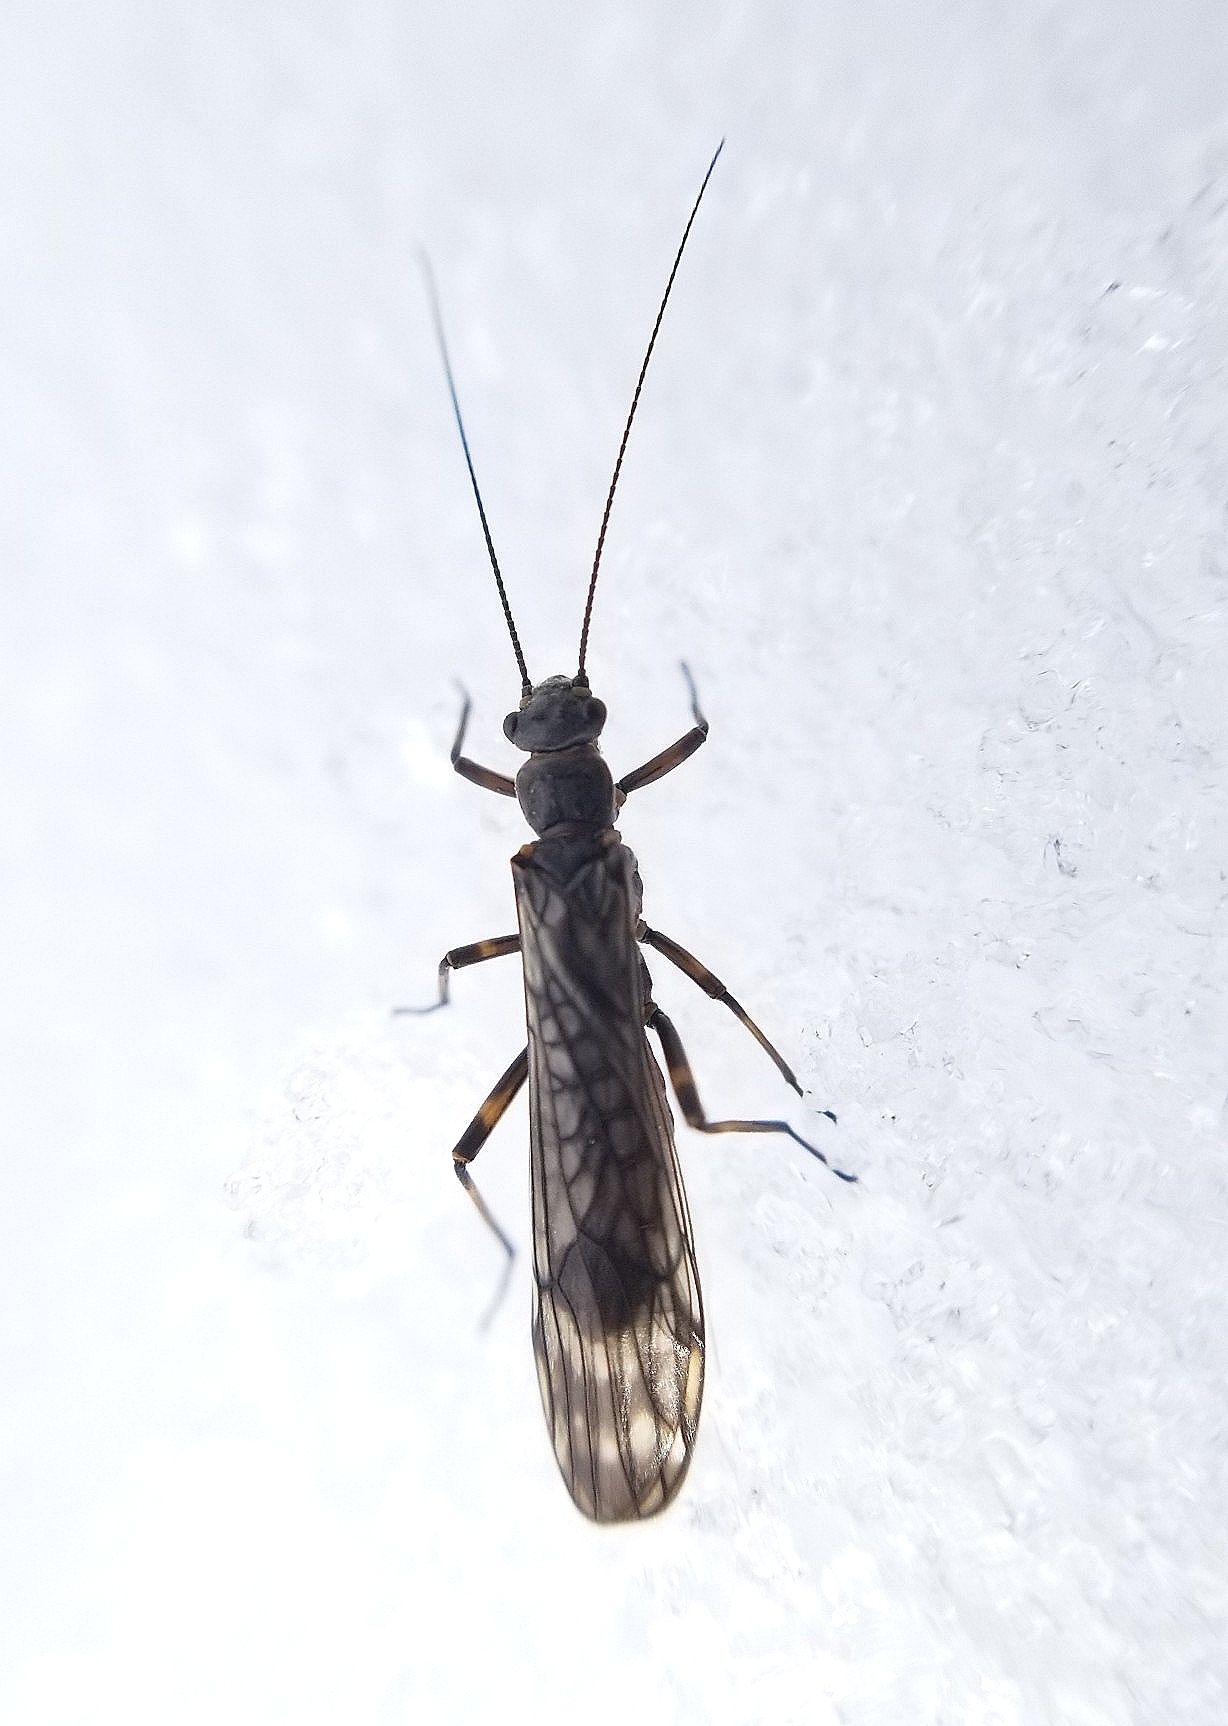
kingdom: Animalia
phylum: Arthropoda
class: Insecta
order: Plecoptera
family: Nemouridae
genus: Zapada
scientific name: Zapada cinctipes
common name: Common forestfly
